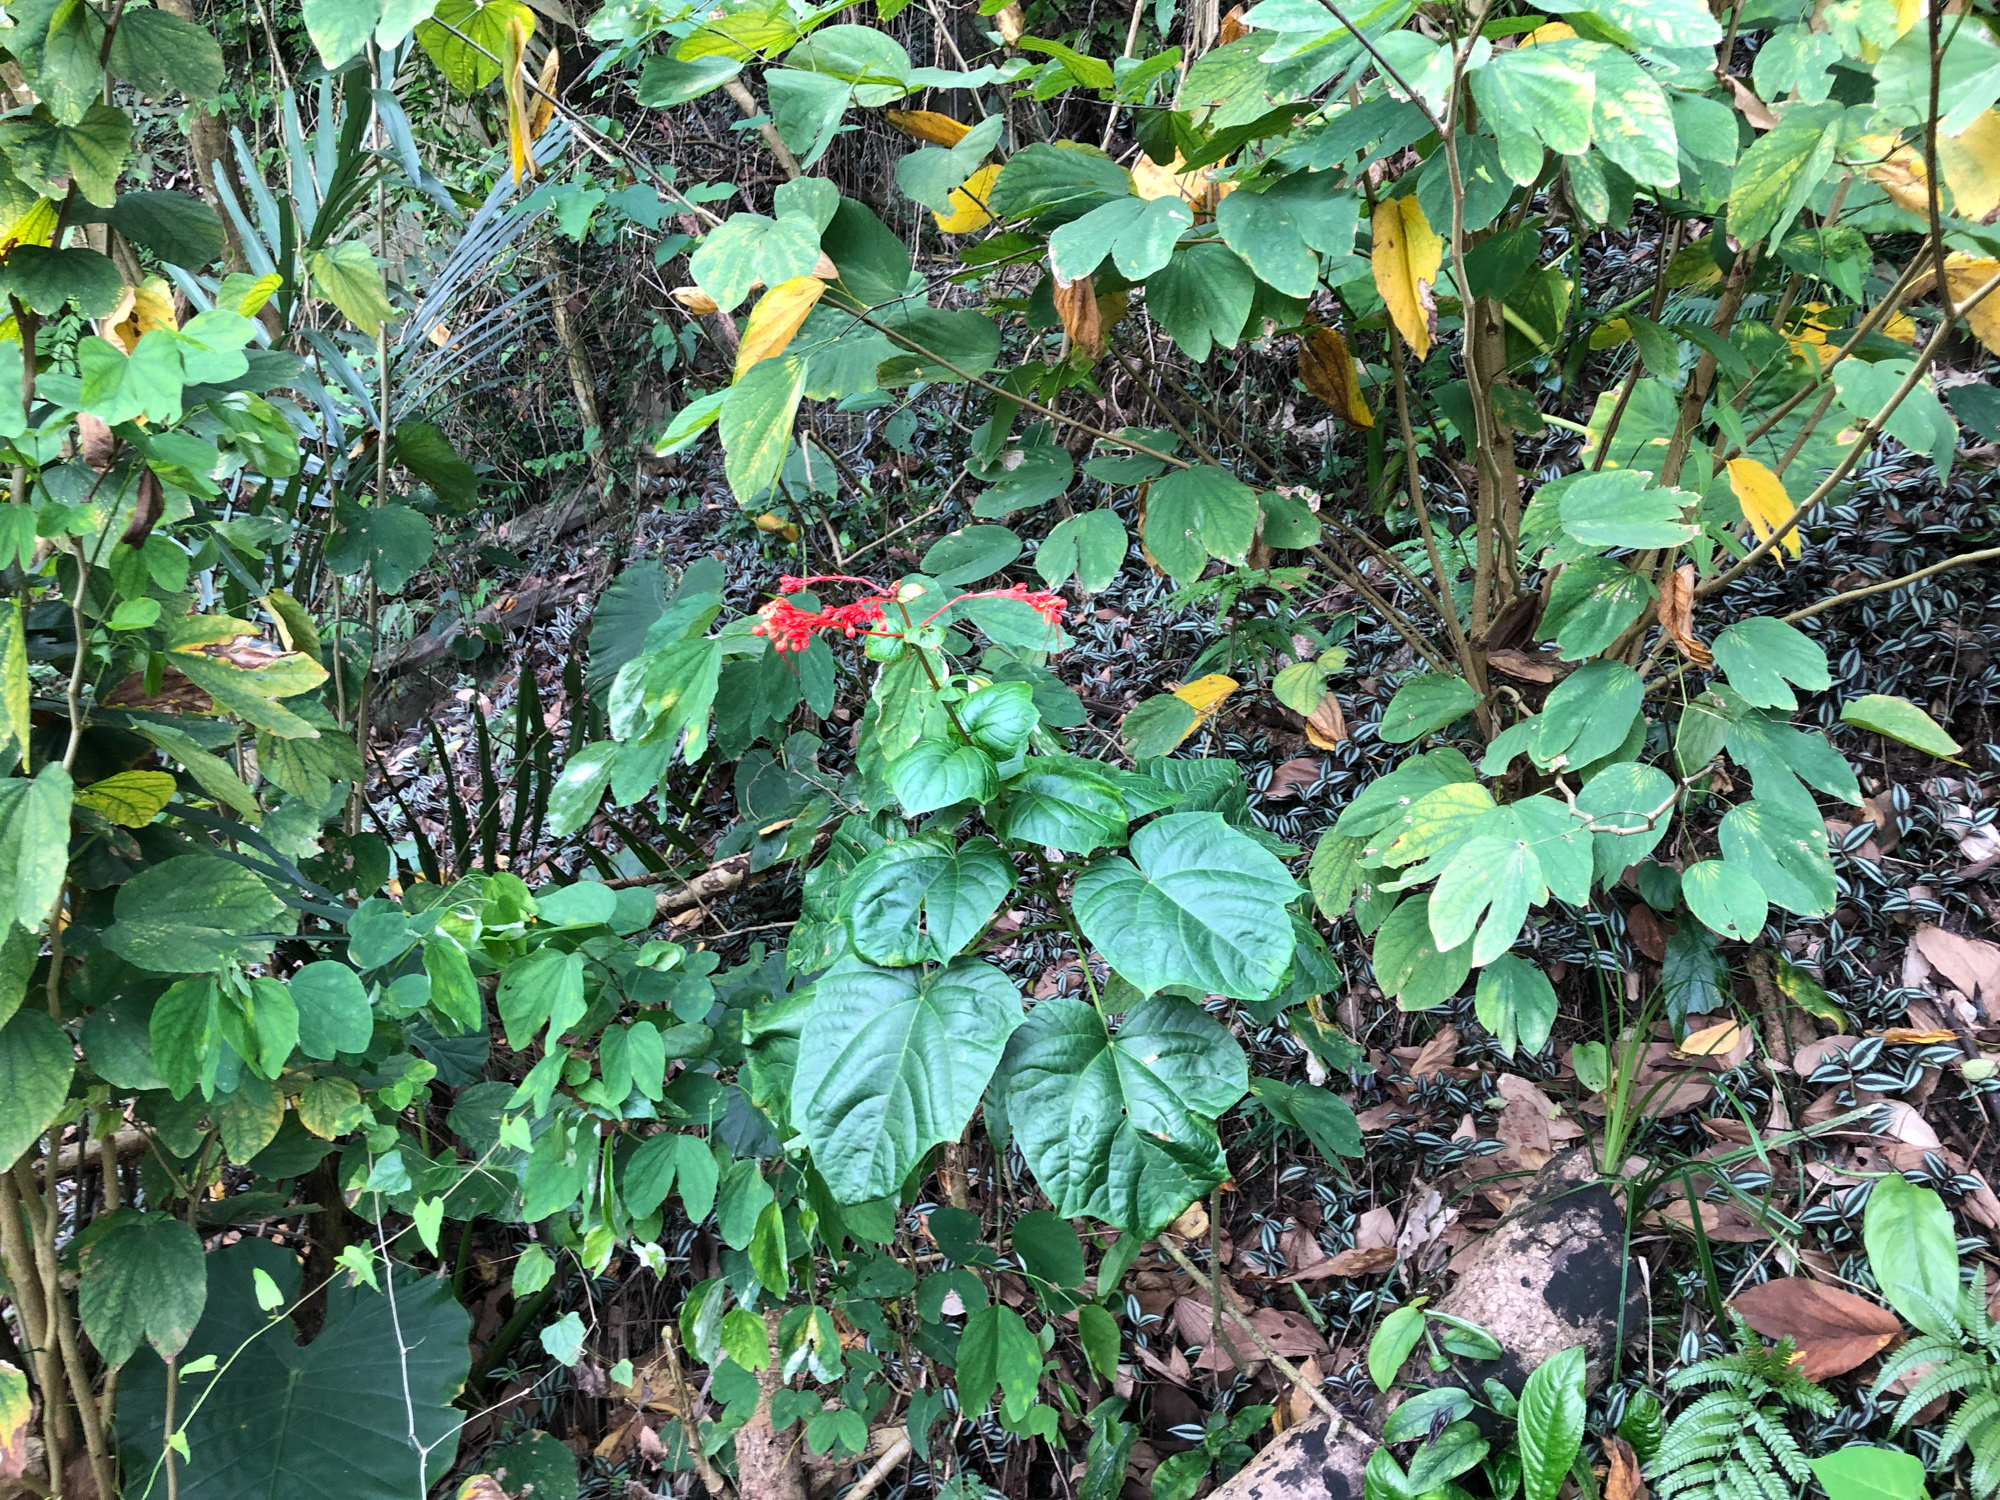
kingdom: Plantae
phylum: Tracheophyta
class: Magnoliopsida
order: Lamiales
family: Lamiaceae
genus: Clerodendrum
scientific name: Clerodendrum japonicum
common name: Japanese glorybower
